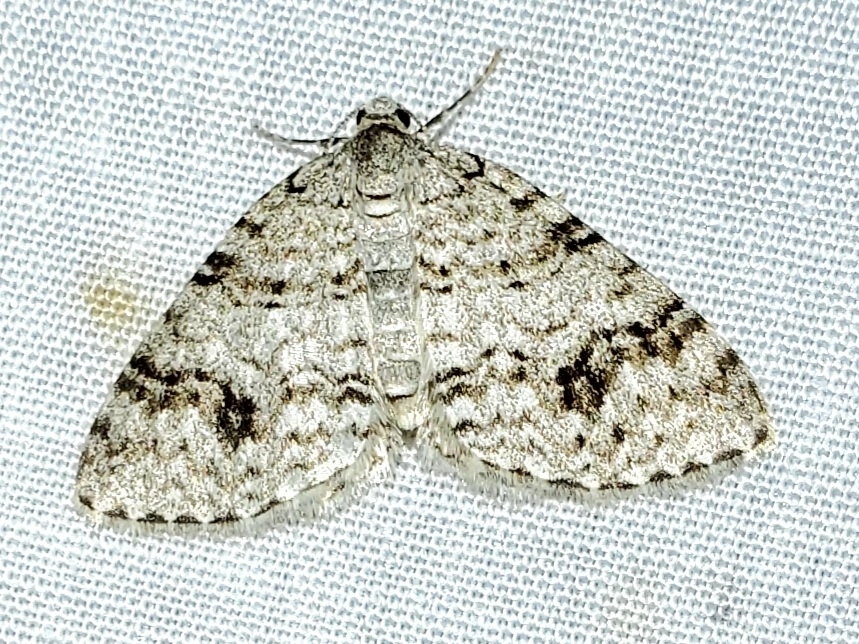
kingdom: Animalia
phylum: Arthropoda
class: Insecta
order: Lepidoptera
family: Geometridae
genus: Venusia
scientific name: Venusia cambrica
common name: Welsh wave
